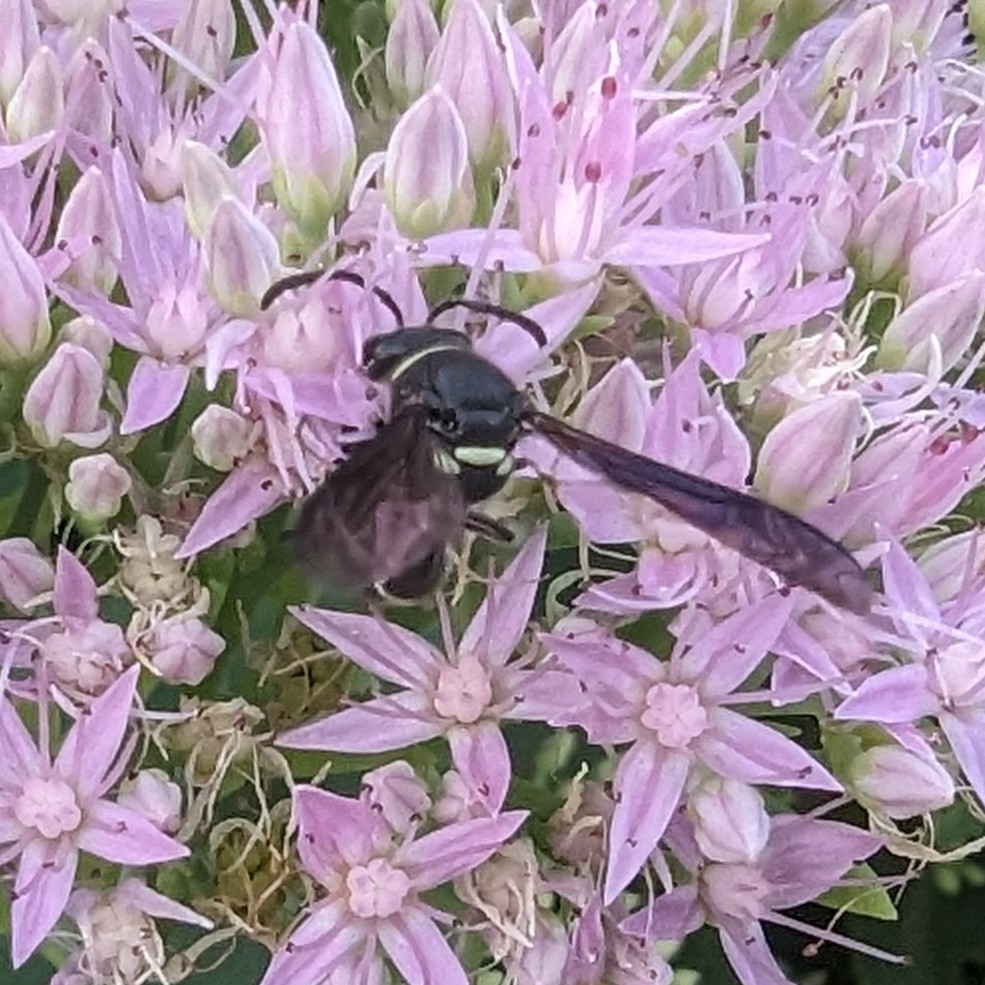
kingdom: Animalia
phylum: Arthropoda
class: Insecta
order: Hymenoptera
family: Vespidae
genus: Eumenes
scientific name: Eumenes fraternus
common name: Fraternal potter wasp
